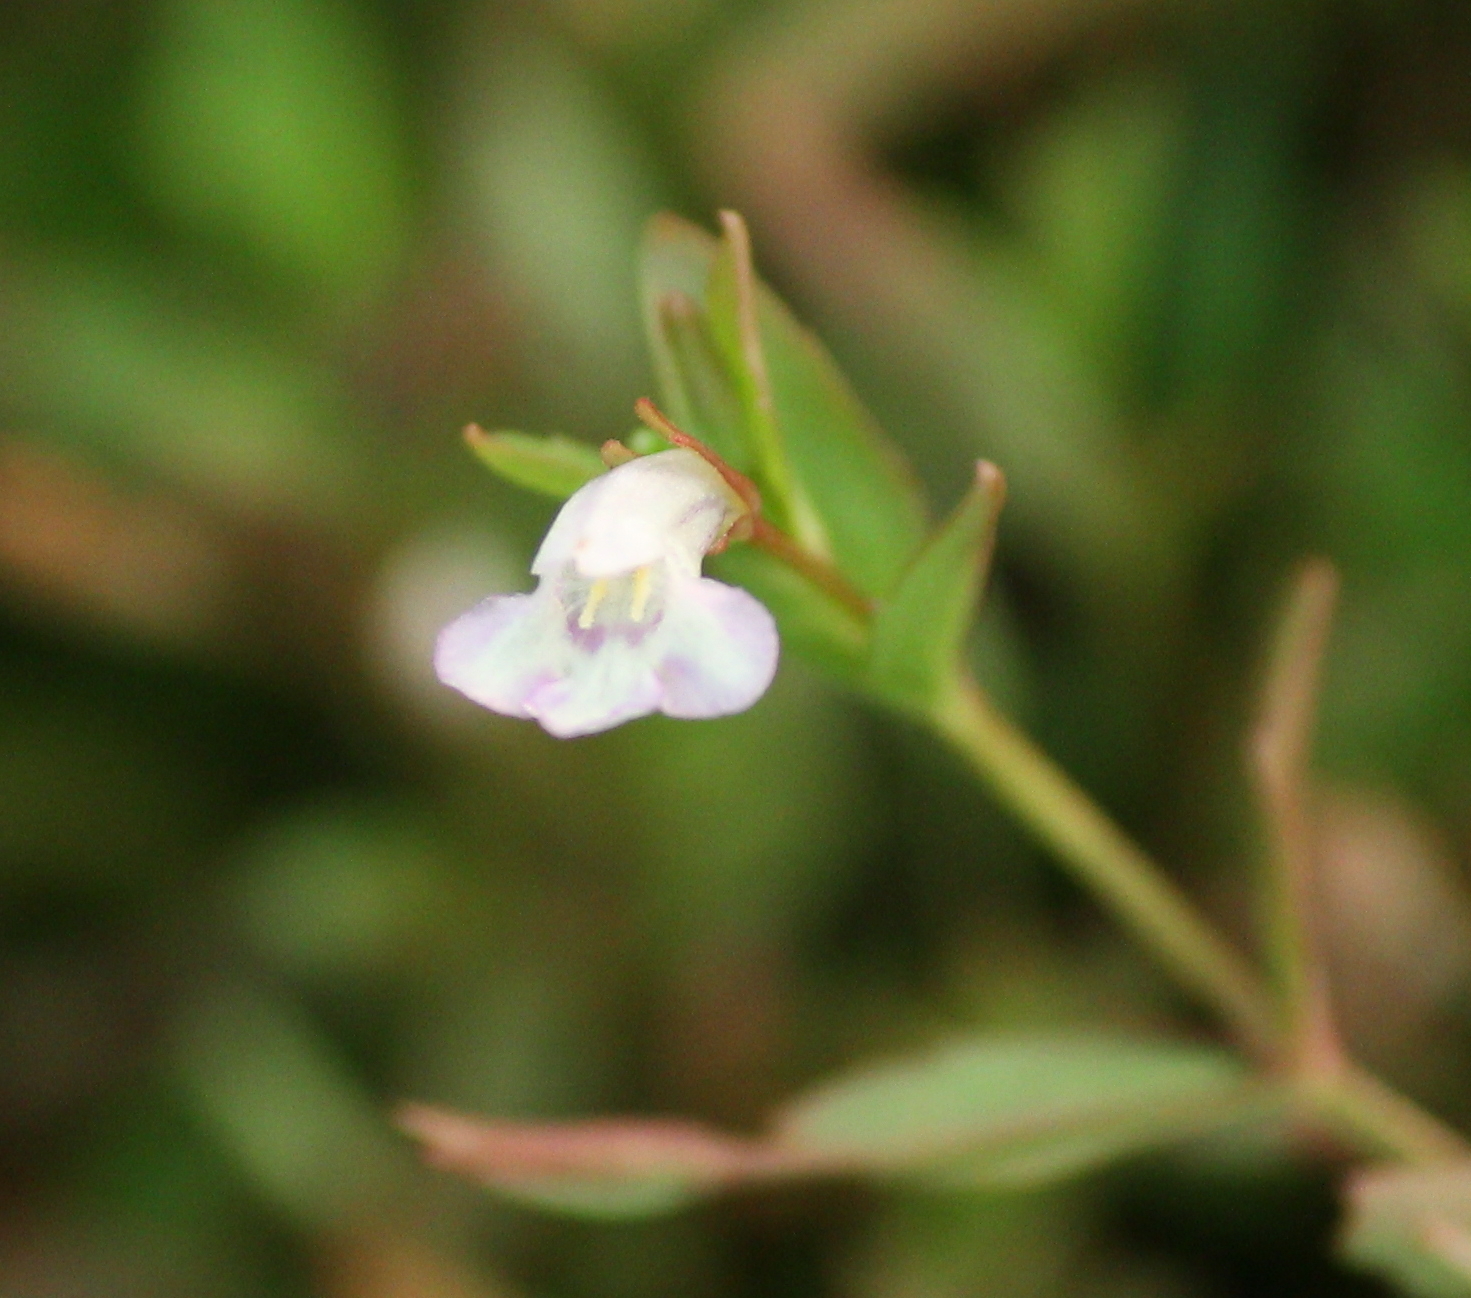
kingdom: Plantae
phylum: Tracheophyta
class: Magnoliopsida
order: Lamiales
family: Linderniaceae
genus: Lindernia
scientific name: Lindernia dubia
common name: Annual false pimpernel
